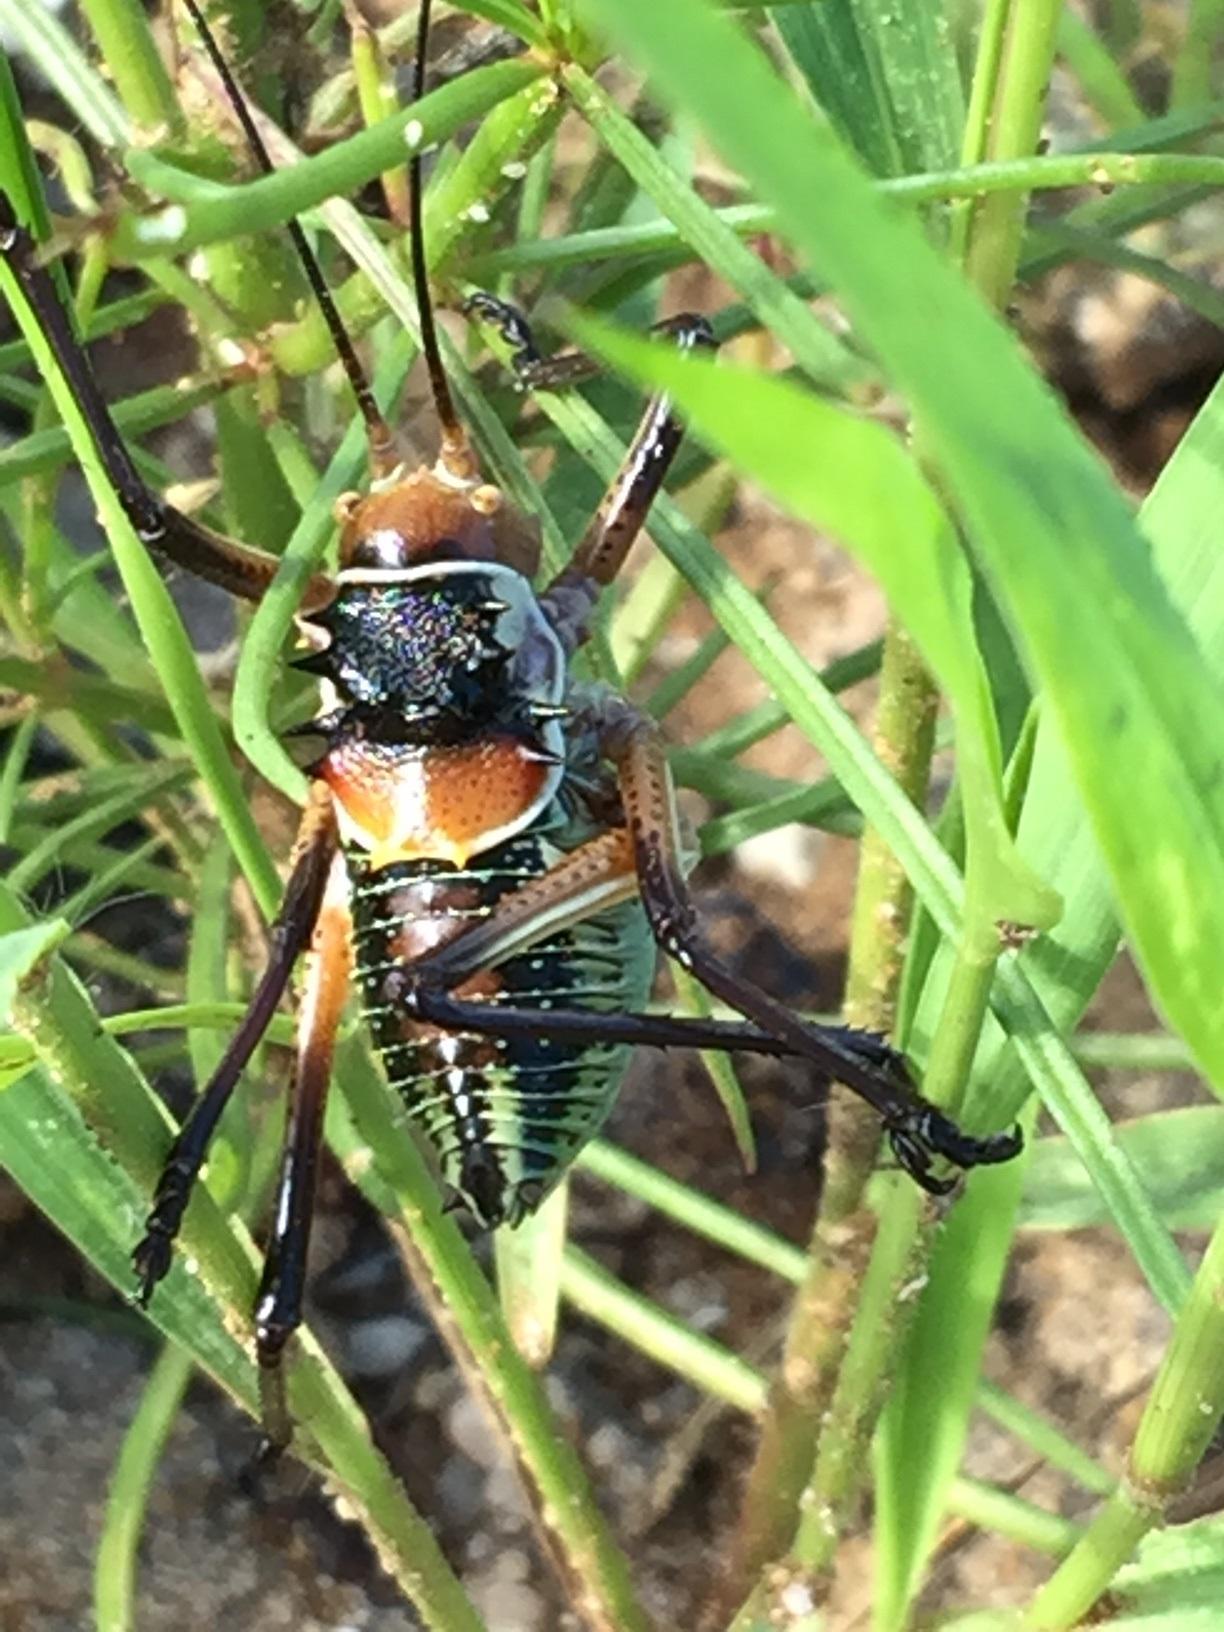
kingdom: Animalia
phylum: Arthropoda
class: Insecta
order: Orthoptera
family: Tettigoniidae
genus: Acanthoplus
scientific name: Acanthoplus longipes
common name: Long-legged armoured katydid
